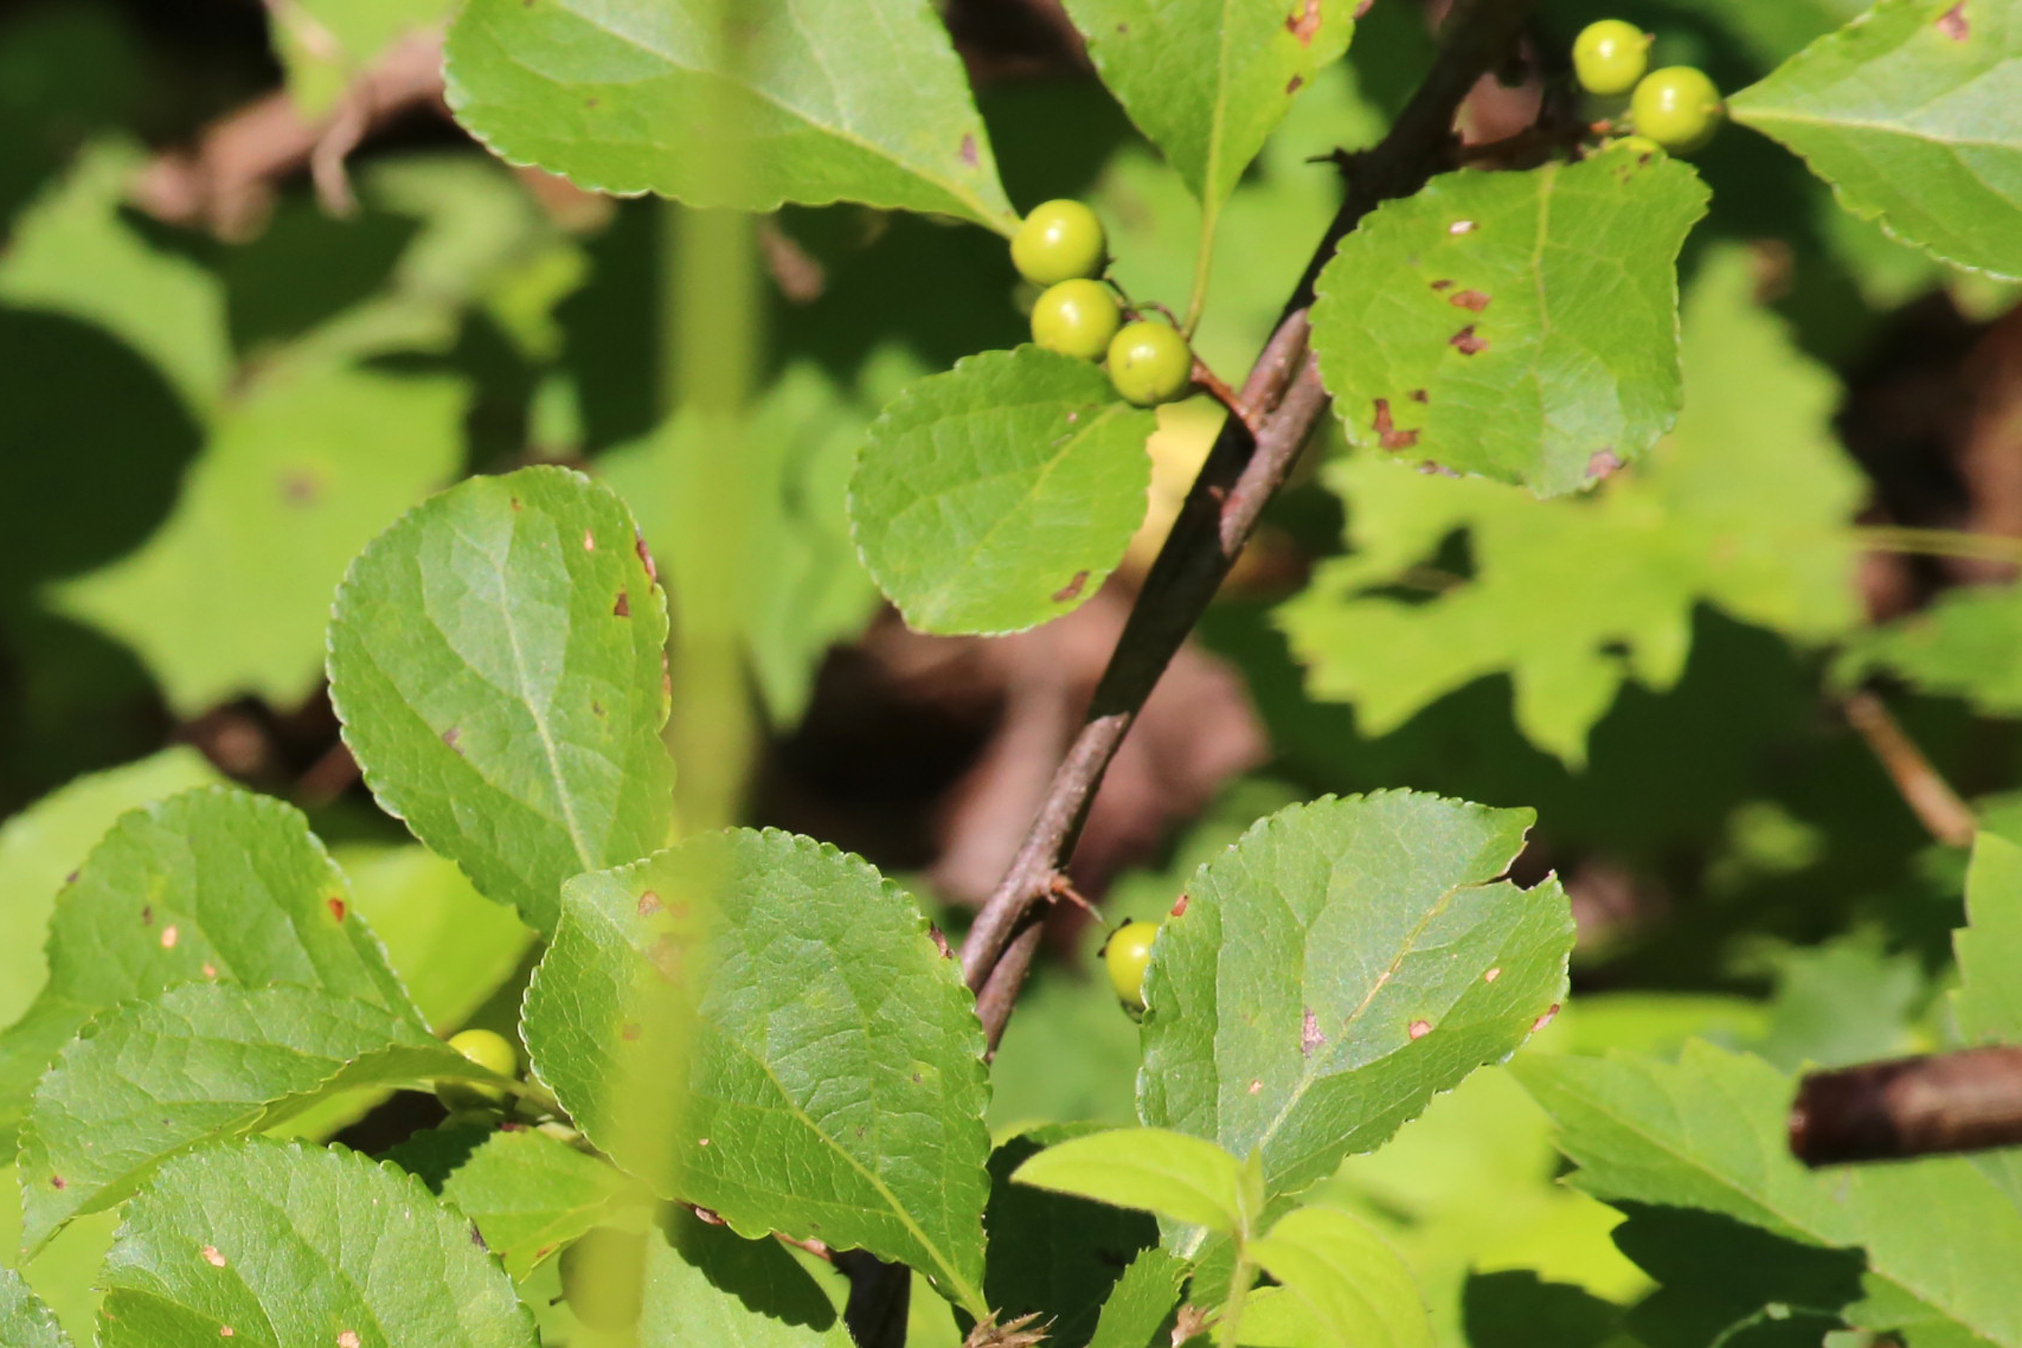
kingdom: Plantae
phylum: Tracheophyta
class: Magnoliopsida
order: Celastrales
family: Celastraceae
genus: Celastrus
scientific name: Celastrus orbiculatus
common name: Oriental bittersweet
